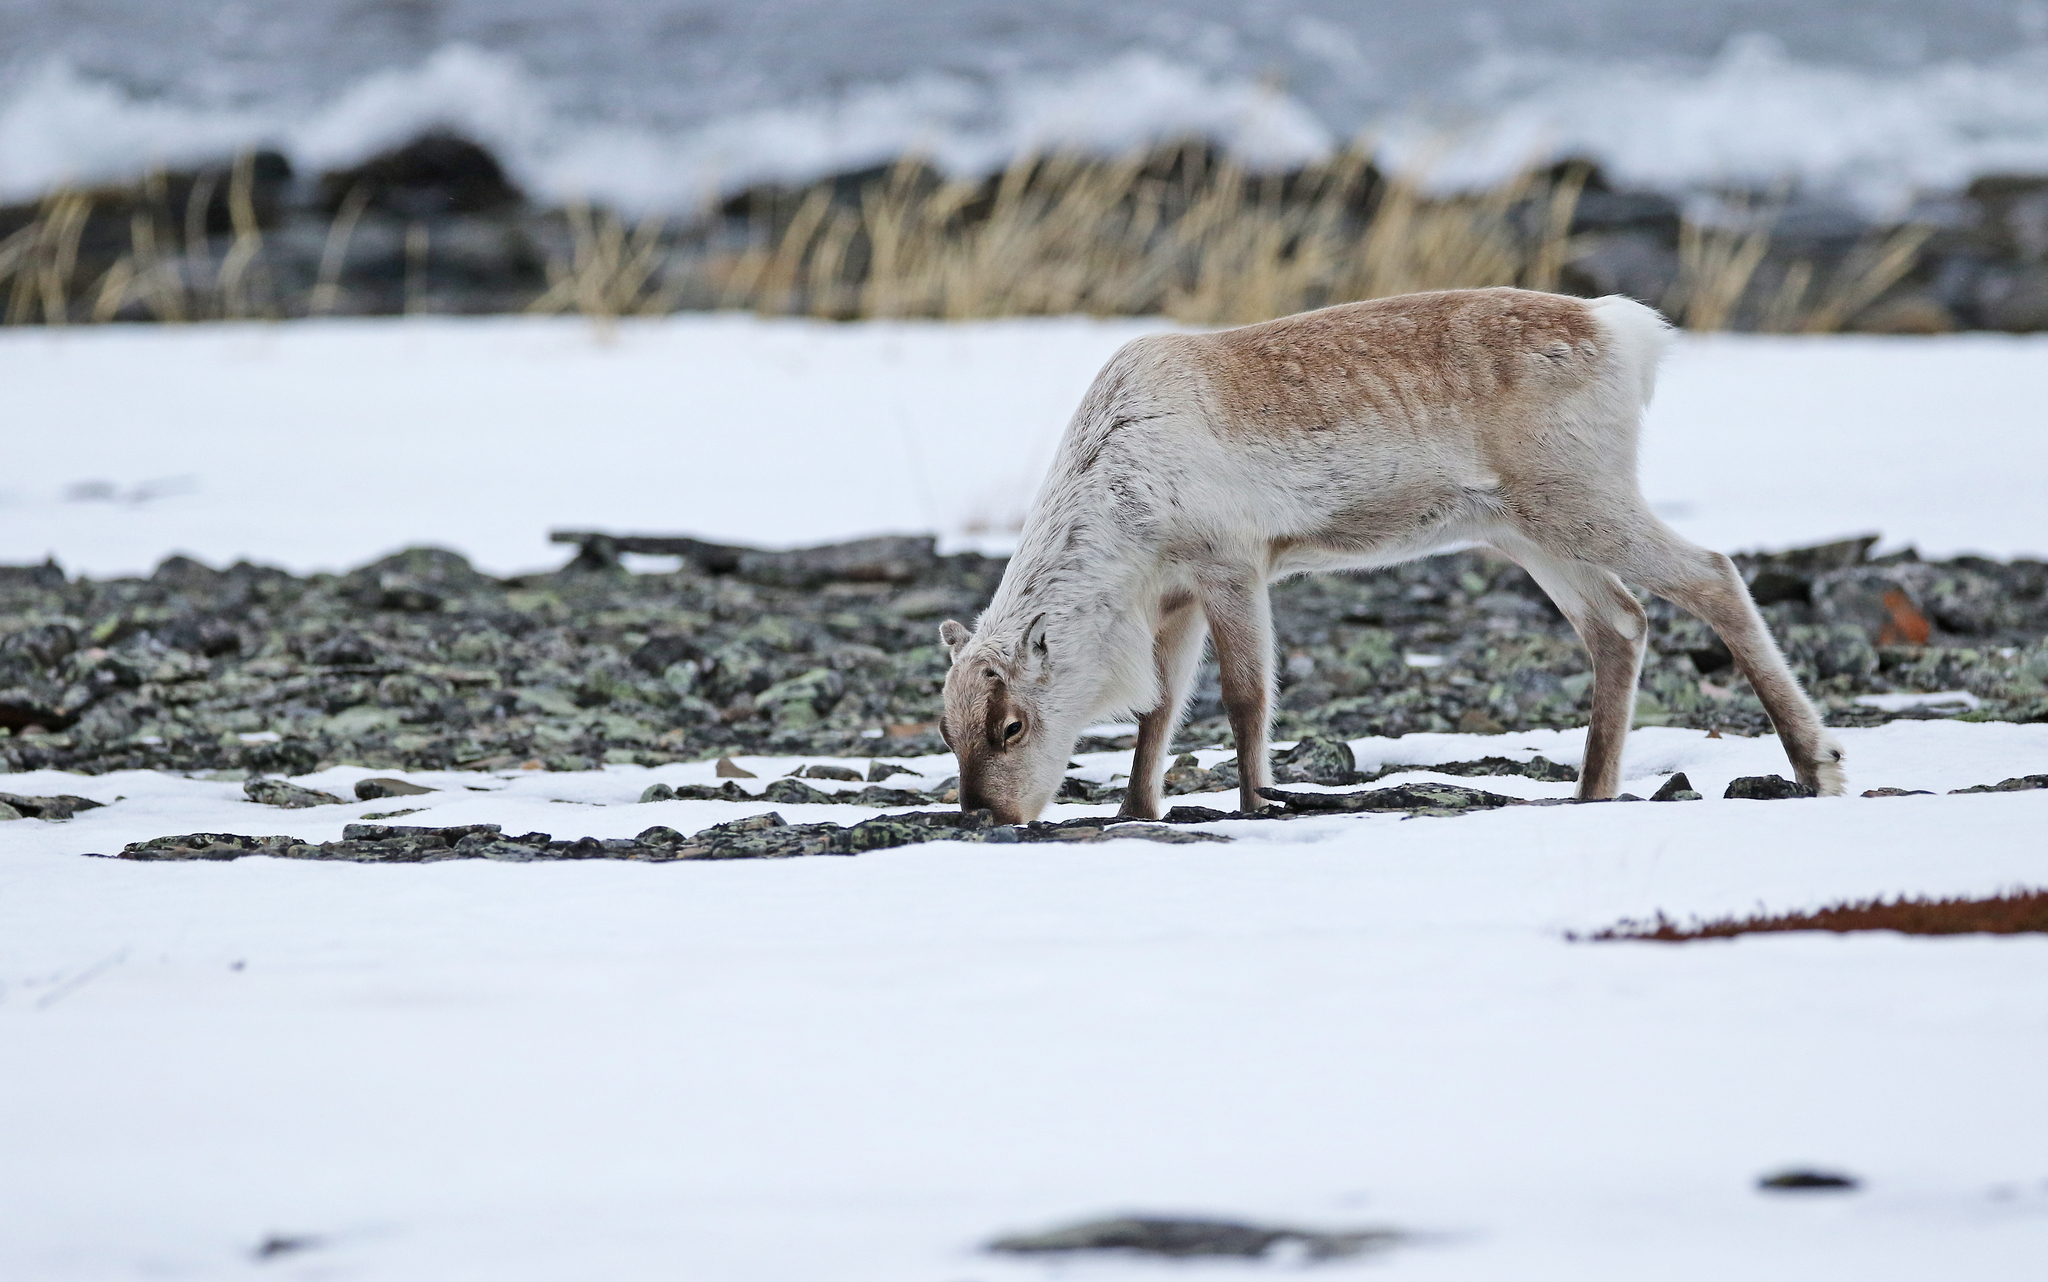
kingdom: Animalia
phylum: Chordata
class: Mammalia
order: Artiodactyla
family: Cervidae
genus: Rangifer
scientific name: Rangifer tarandus
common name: Reindeer
